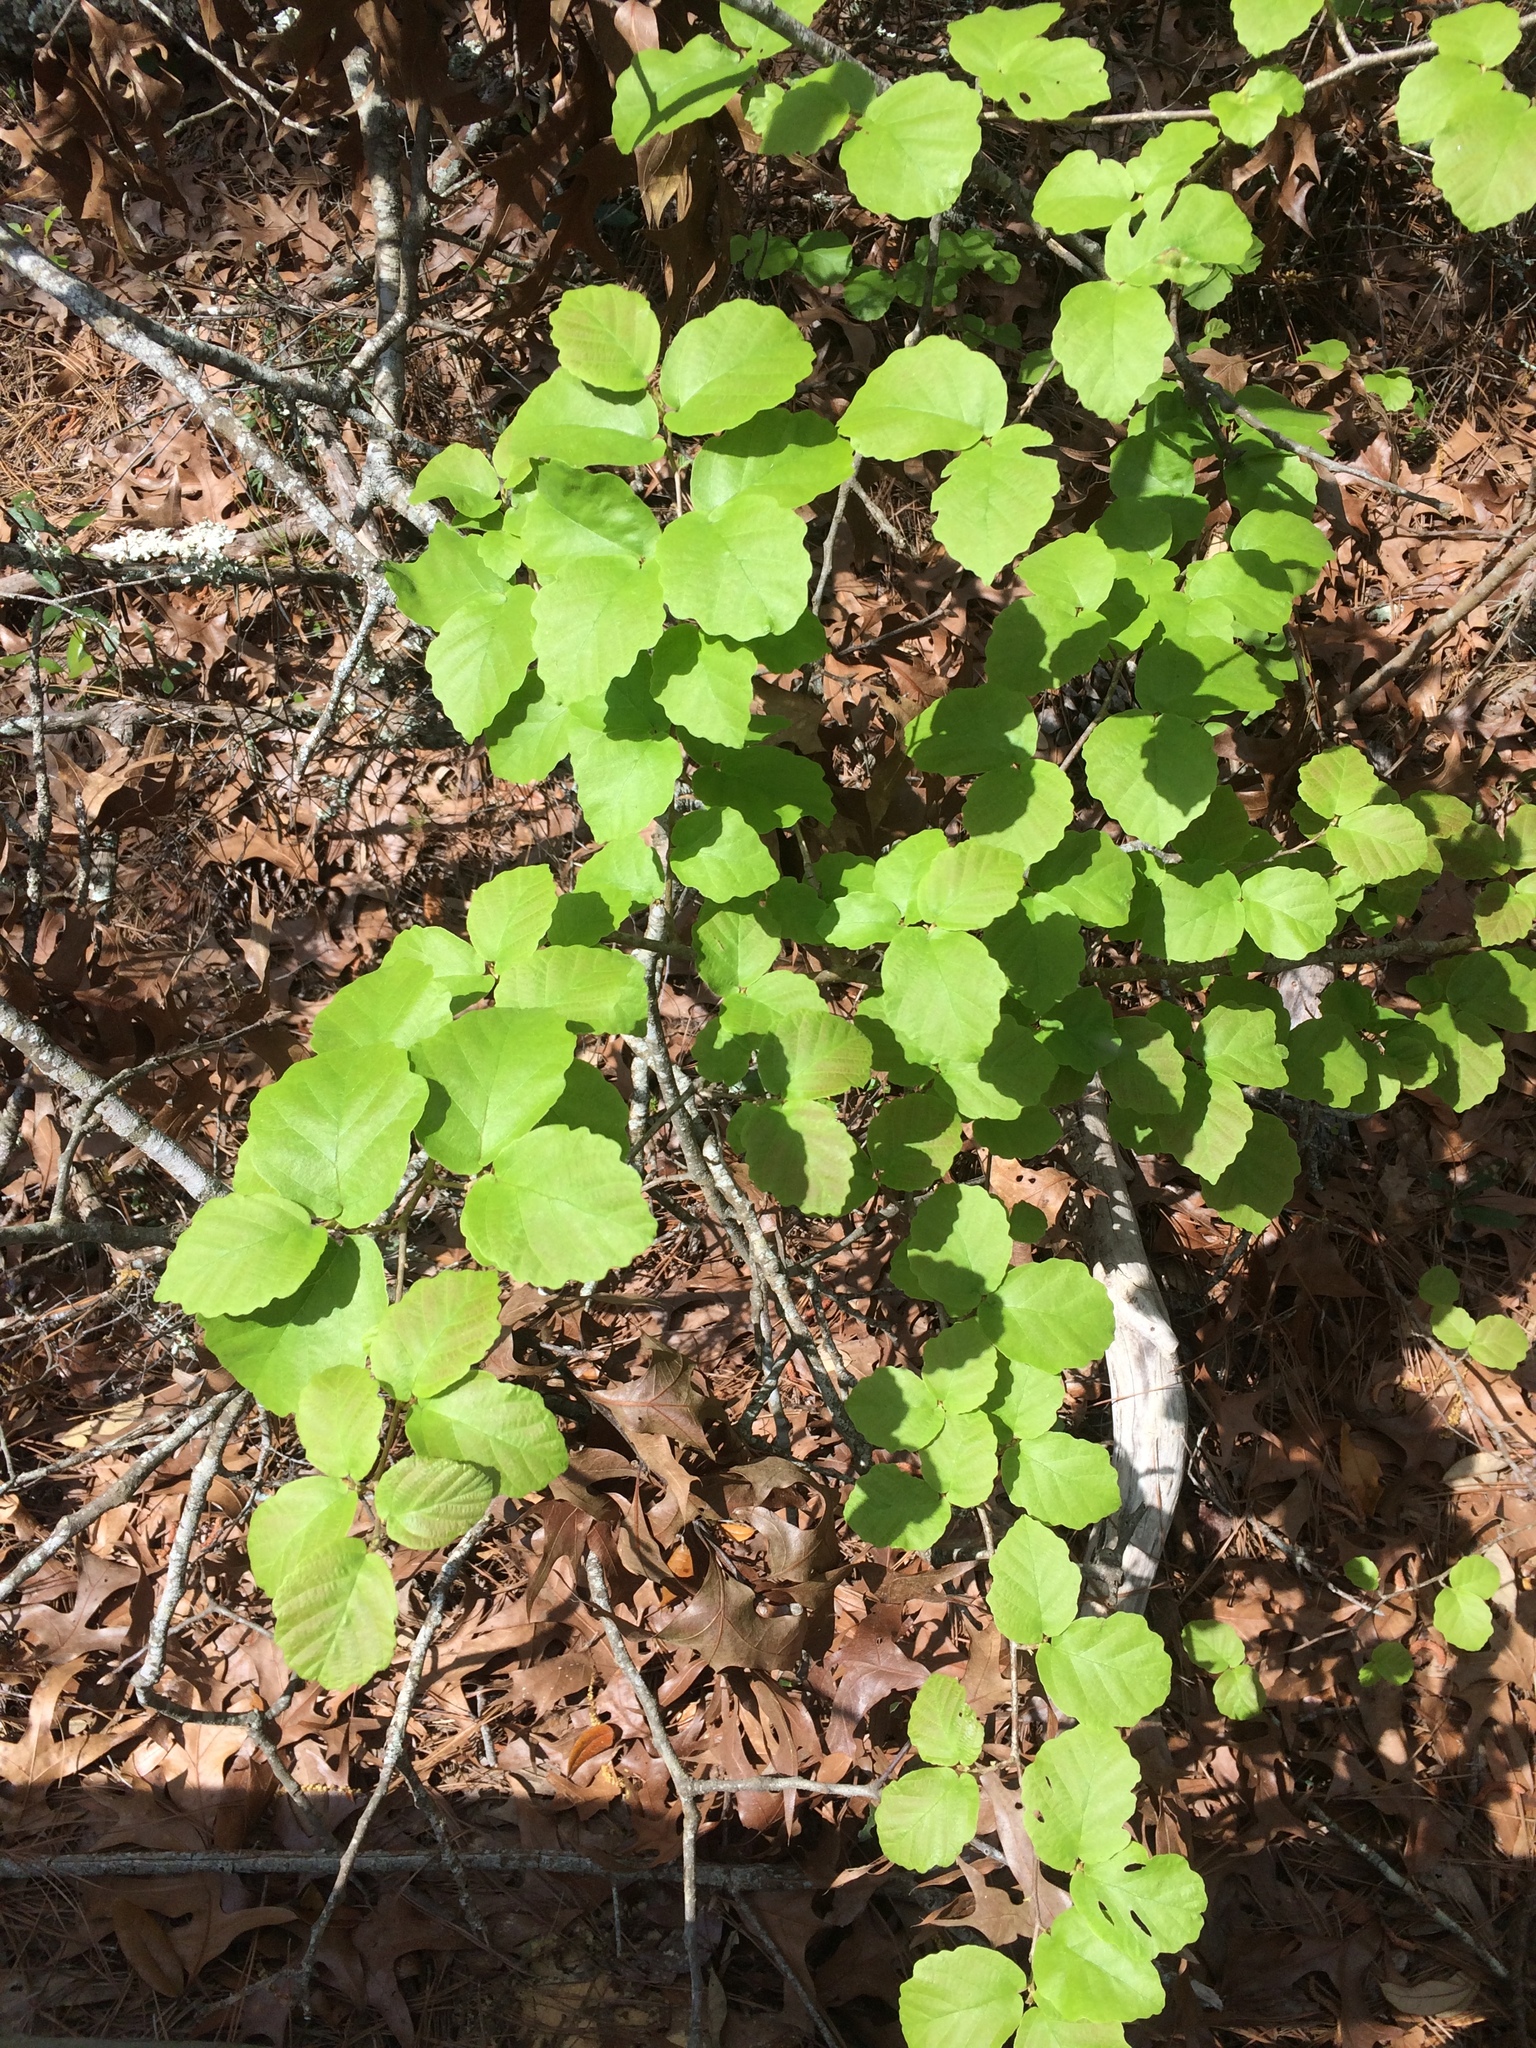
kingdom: Plantae
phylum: Tracheophyta
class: Magnoliopsida
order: Saxifragales
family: Hamamelidaceae
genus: Hamamelis
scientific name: Hamamelis virginiana
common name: Witch-hazel
